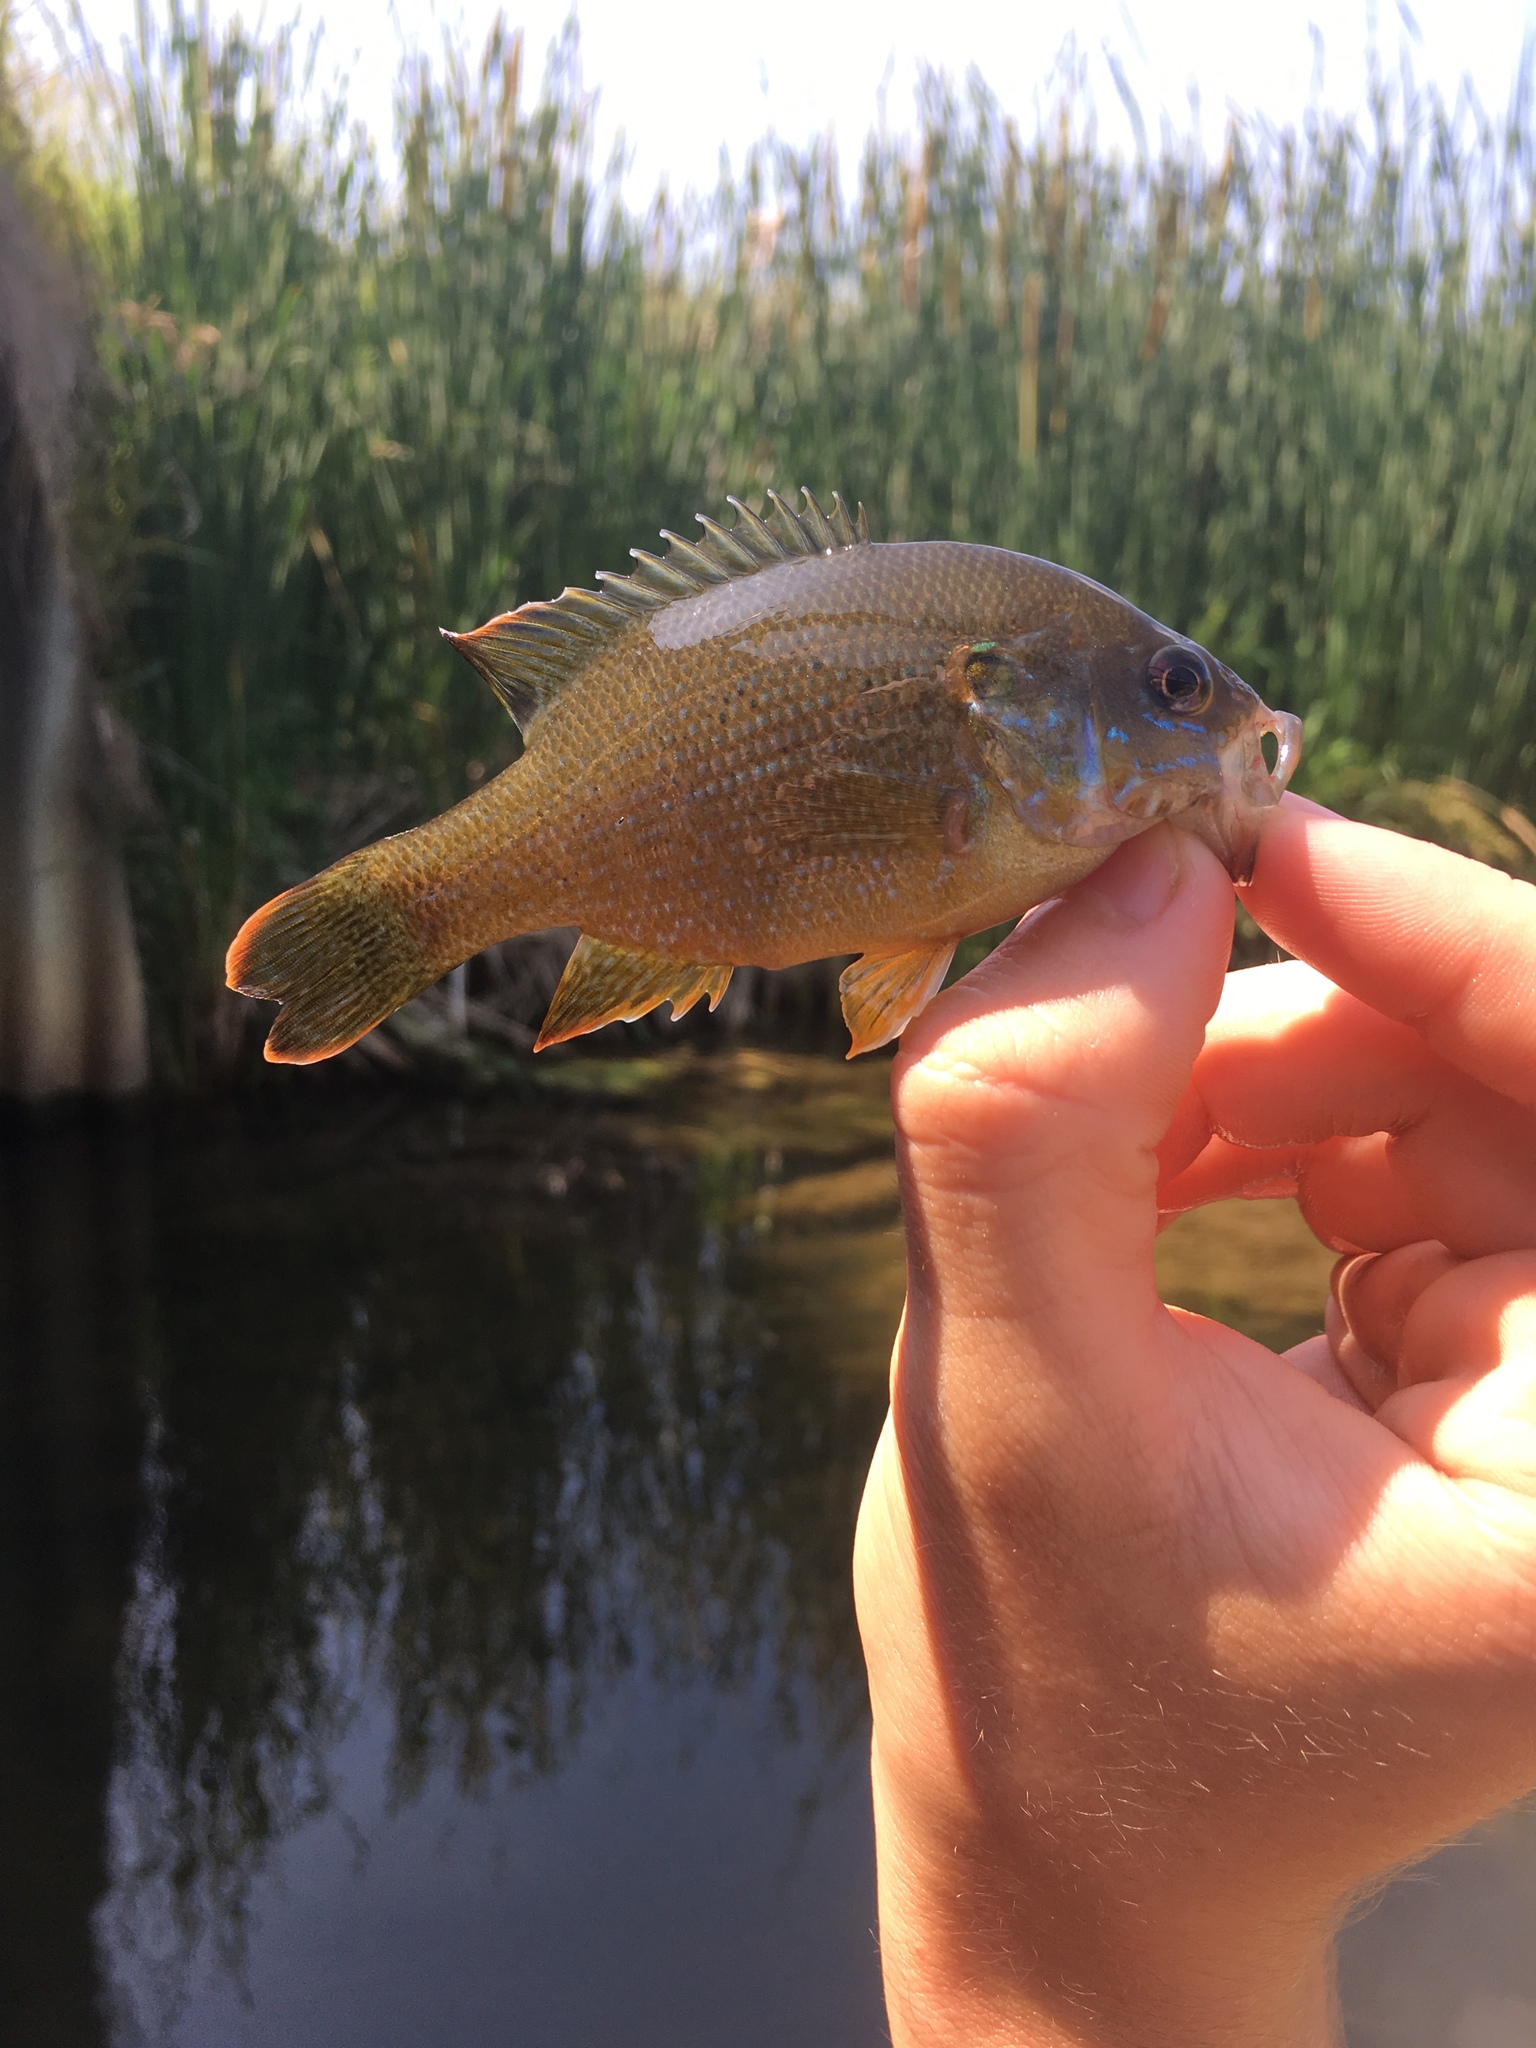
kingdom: Animalia
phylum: Chordata
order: Perciformes
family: Centrarchidae
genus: Lepomis
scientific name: Lepomis cyanellus
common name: Green sunfish
